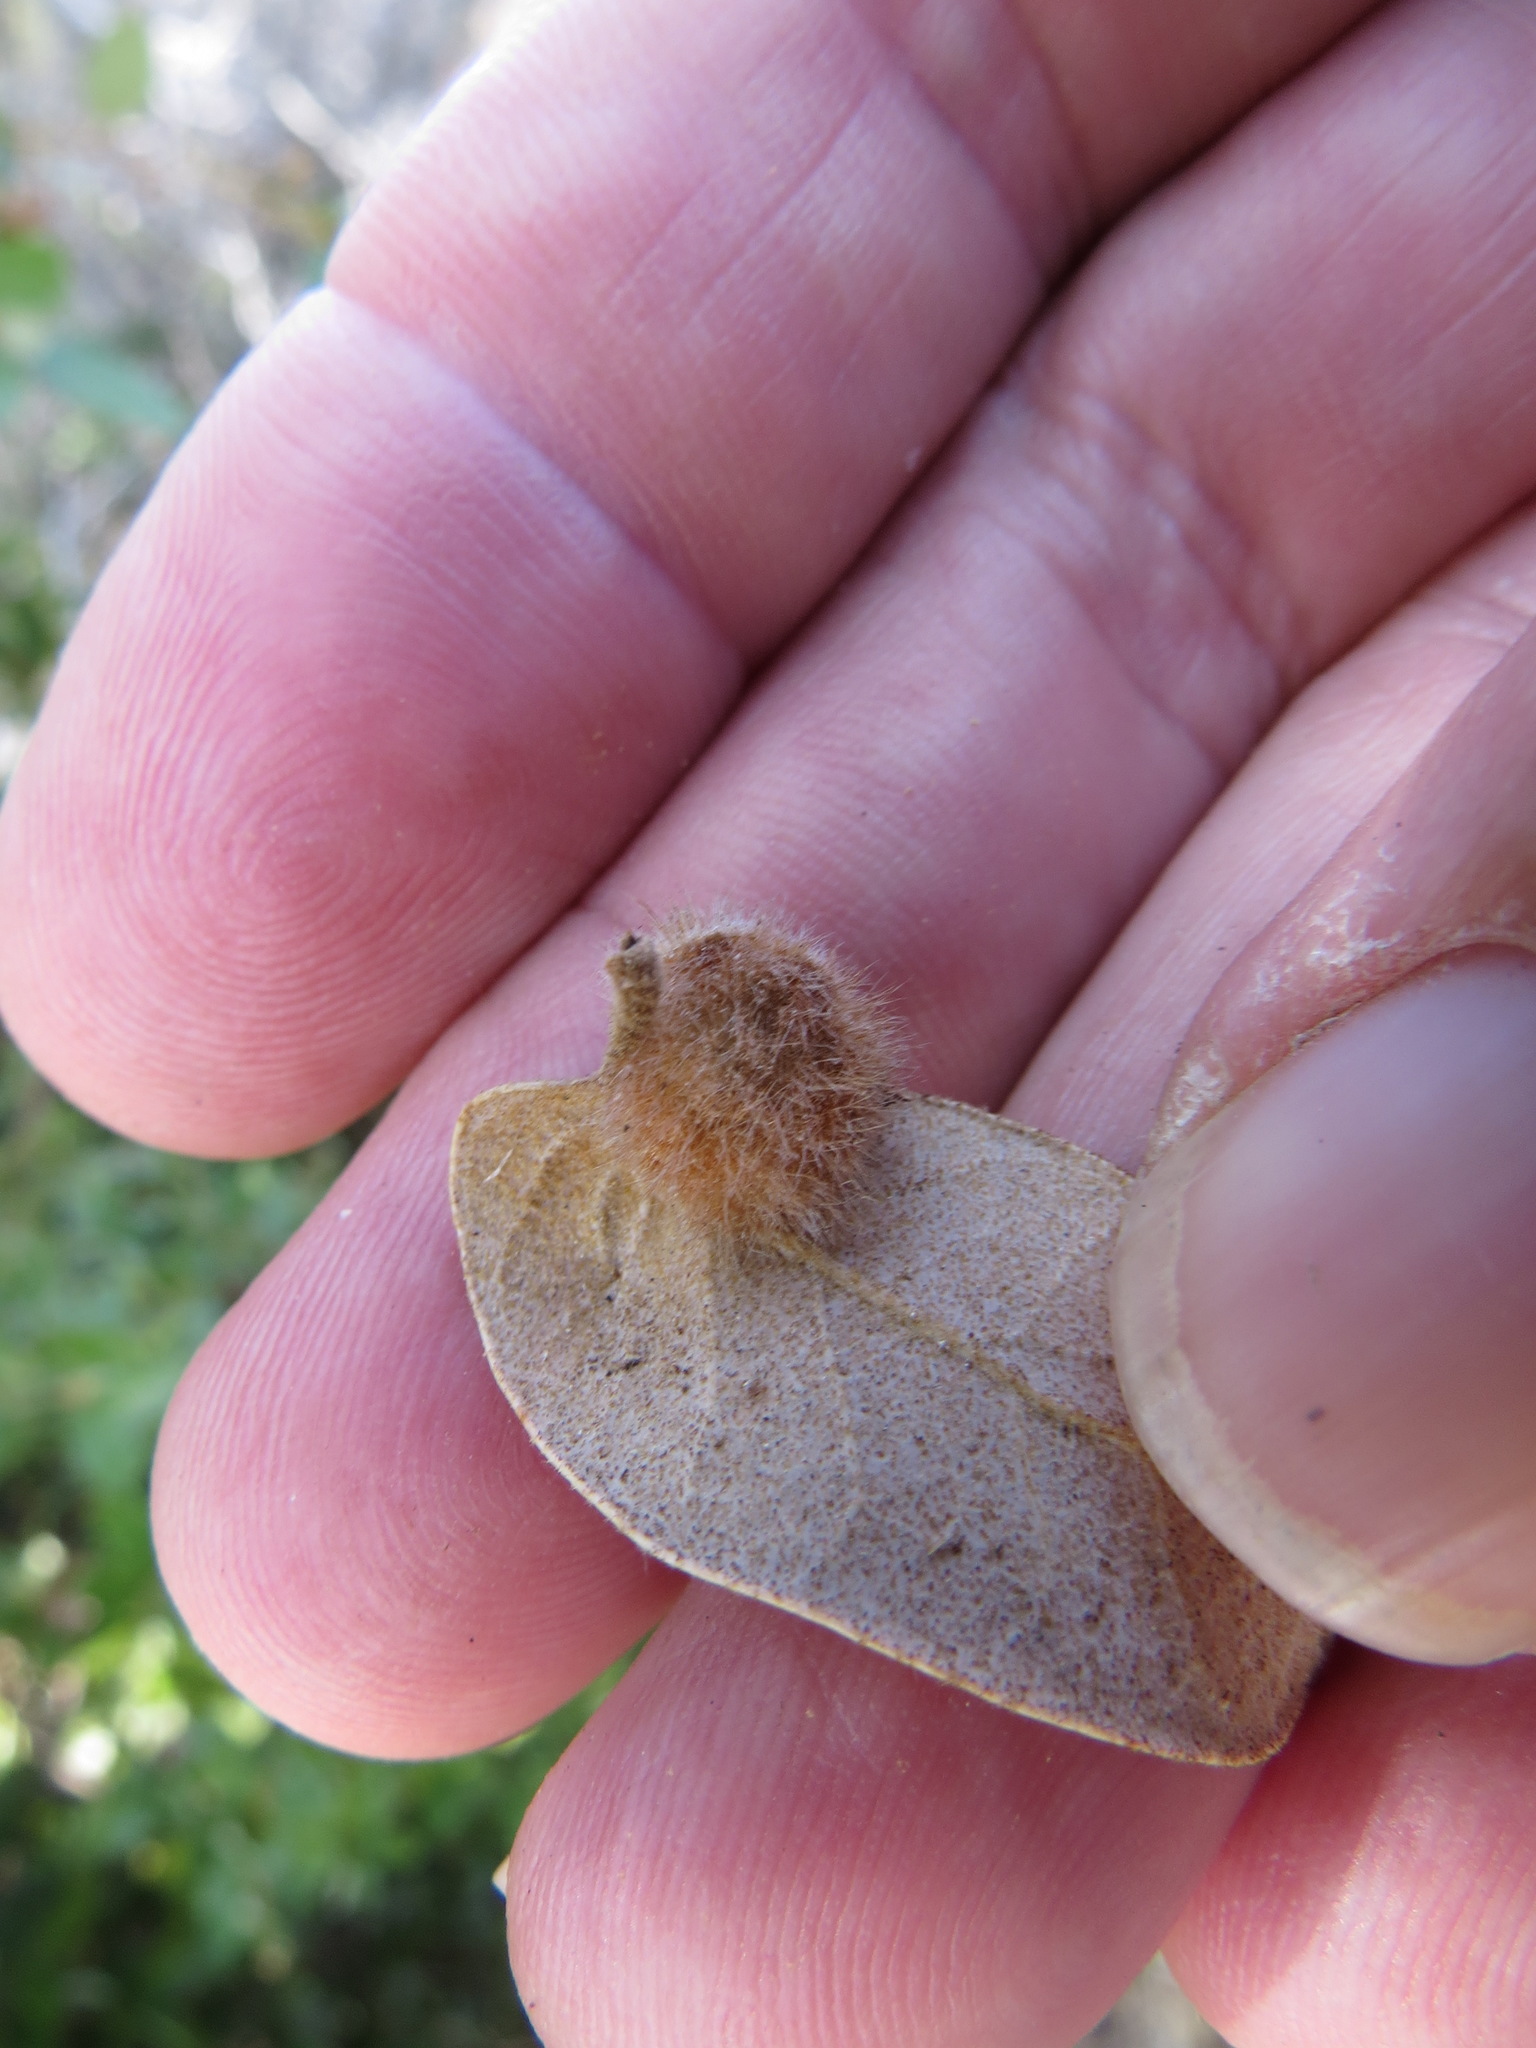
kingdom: Animalia
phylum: Arthropoda
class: Insecta
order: Hymenoptera
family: Cynipidae
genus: Disholandricus
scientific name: Disholandricus
